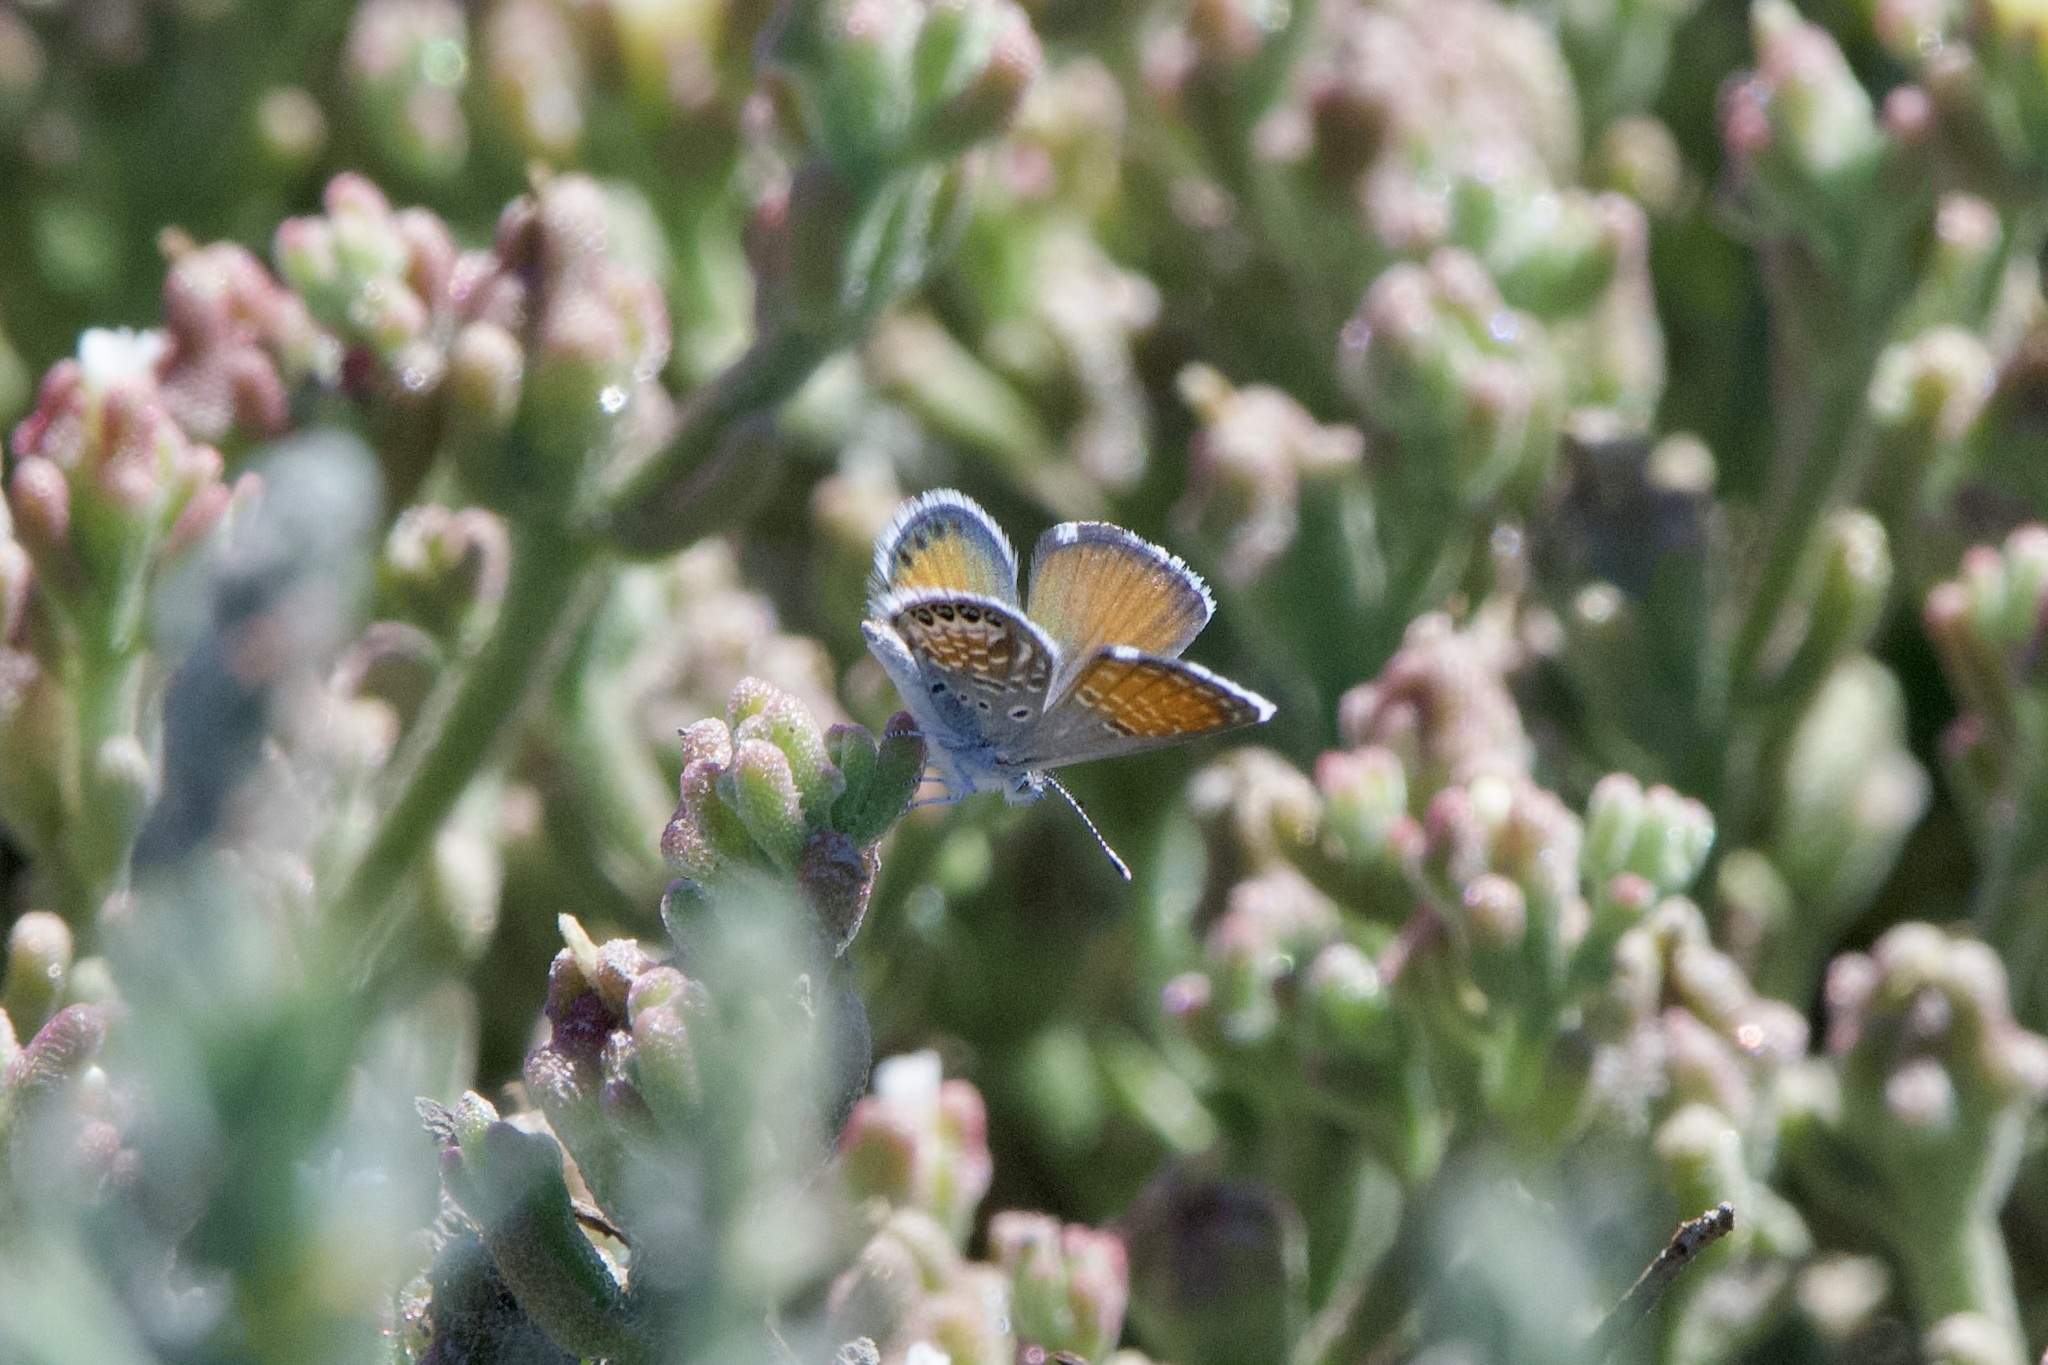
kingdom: Animalia
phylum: Arthropoda
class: Insecta
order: Lepidoptera
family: Lycaenidae
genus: Brephidium
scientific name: Brephidium exilis
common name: Pygmy blue
